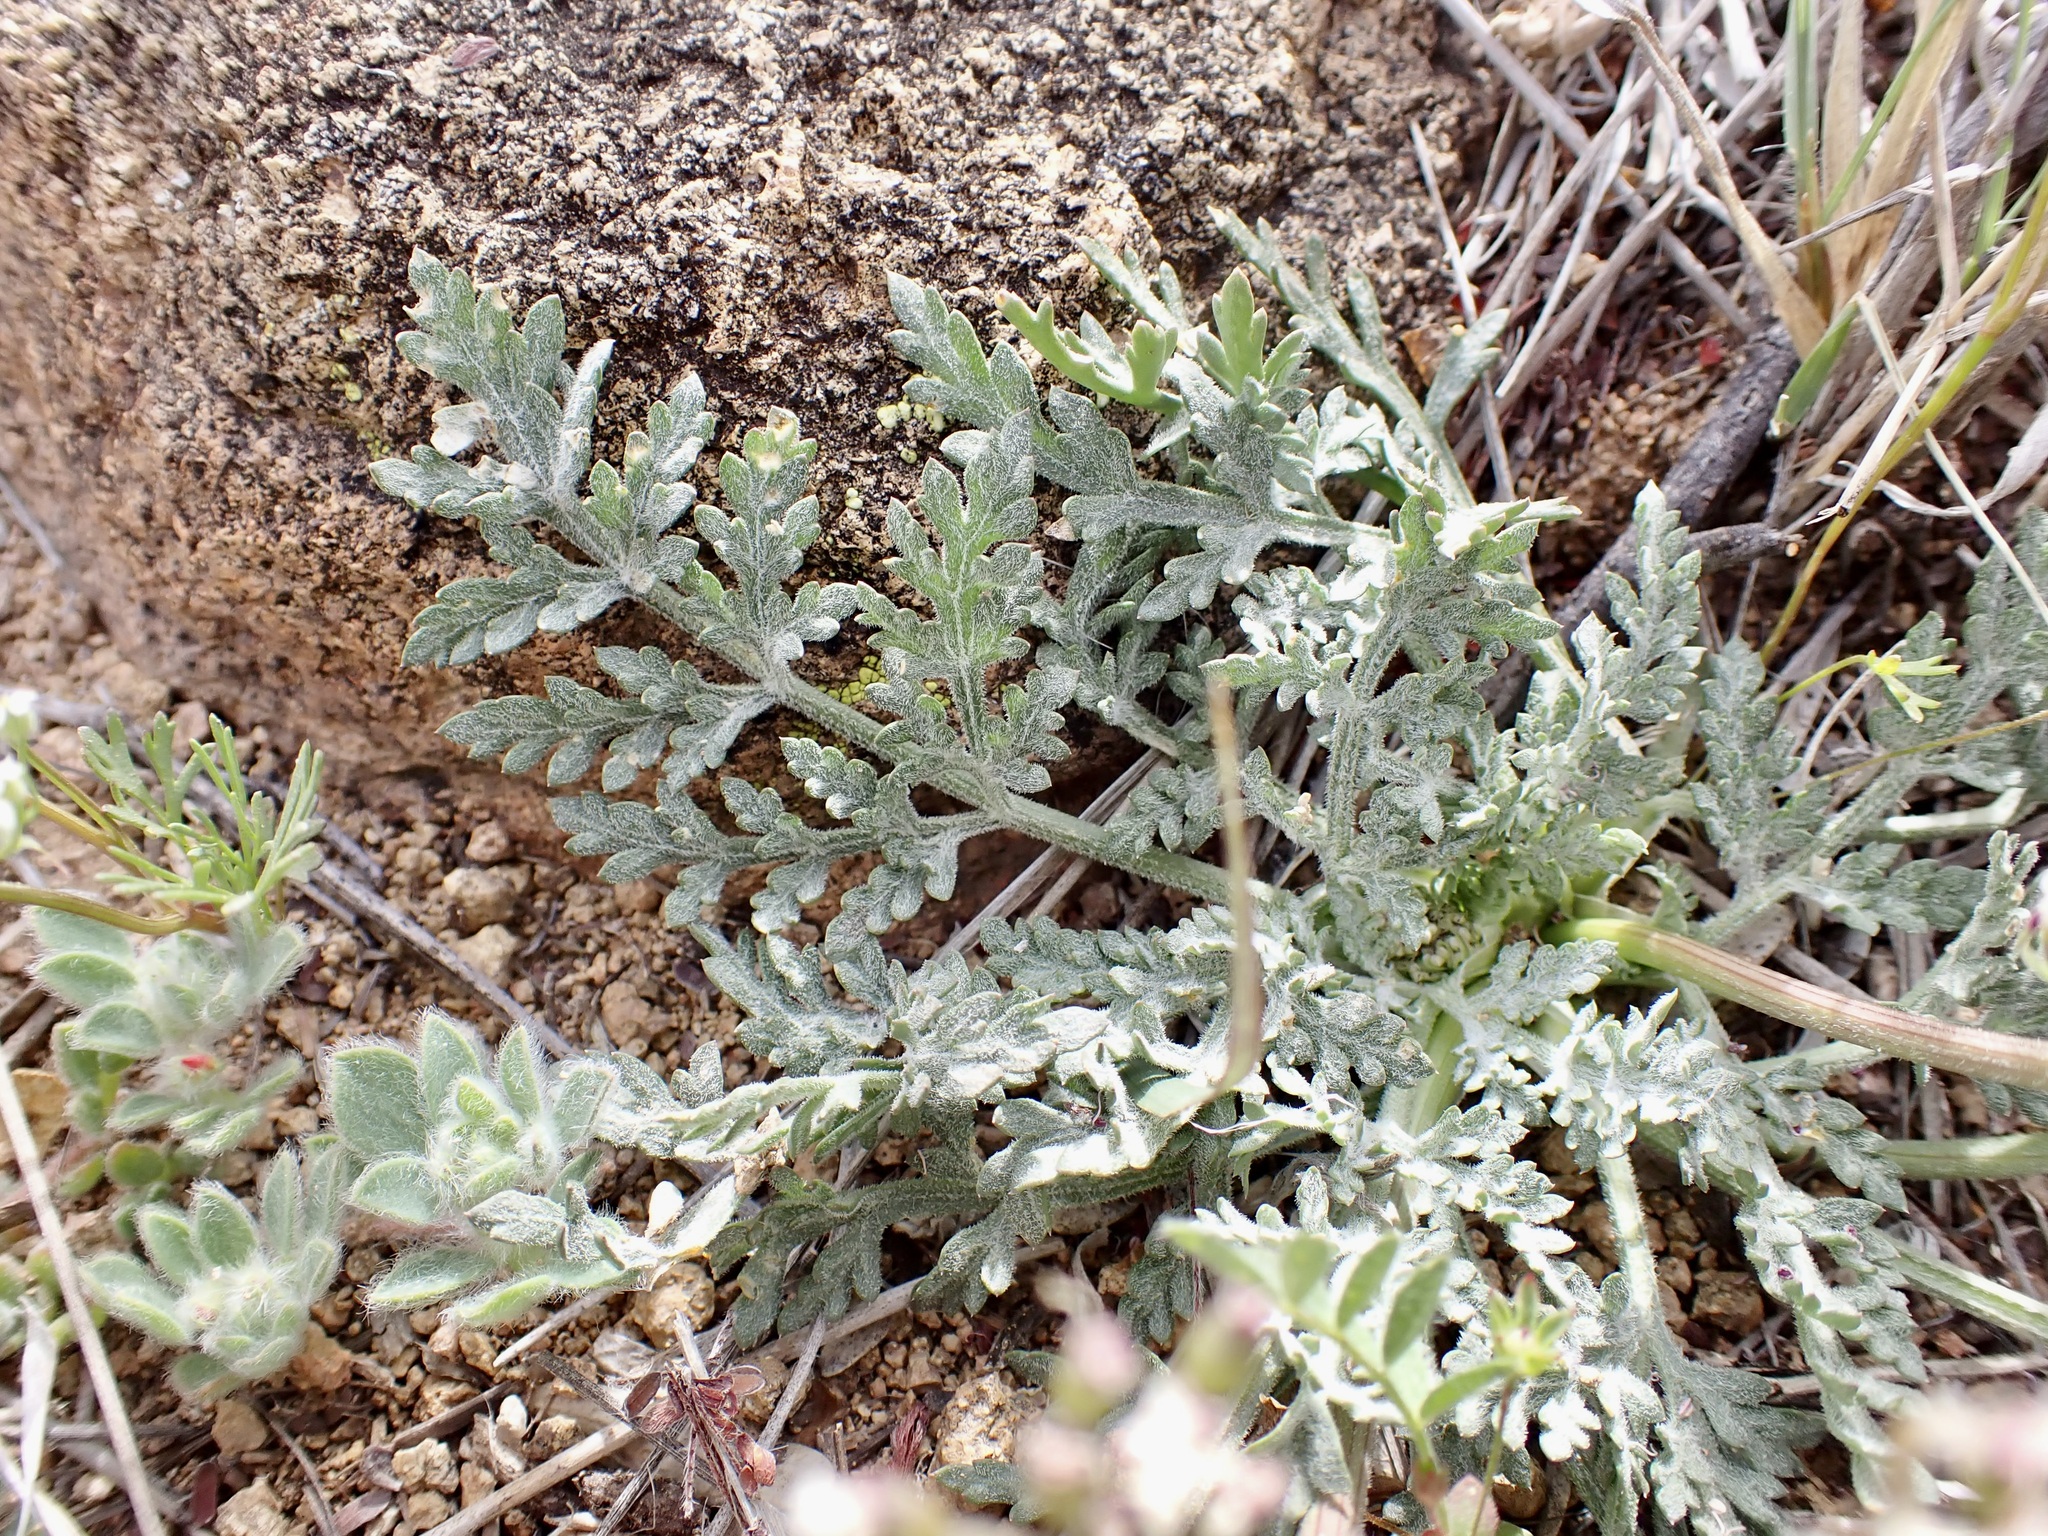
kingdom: Plantae
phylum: Tracheophyta
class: Magnoliopsida
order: Apiales
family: Apiaceae
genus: Lomatium
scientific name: Lomatium nevadense
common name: Nevada lomatium
